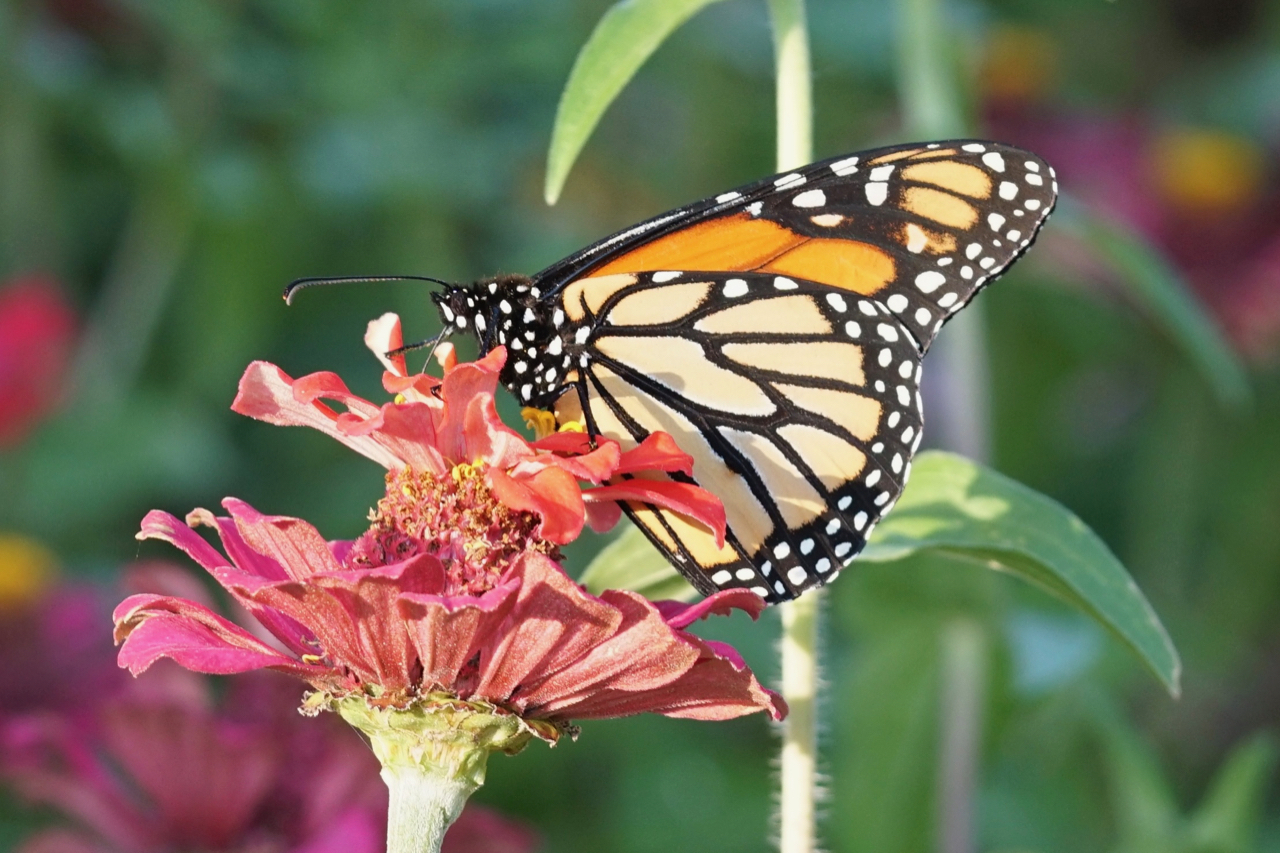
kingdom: Animalia
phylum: Arthropoda
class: Insecta
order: Lepidoptera
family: Nymphalidae
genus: Danaus
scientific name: Danaus plexippus
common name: Monarch
